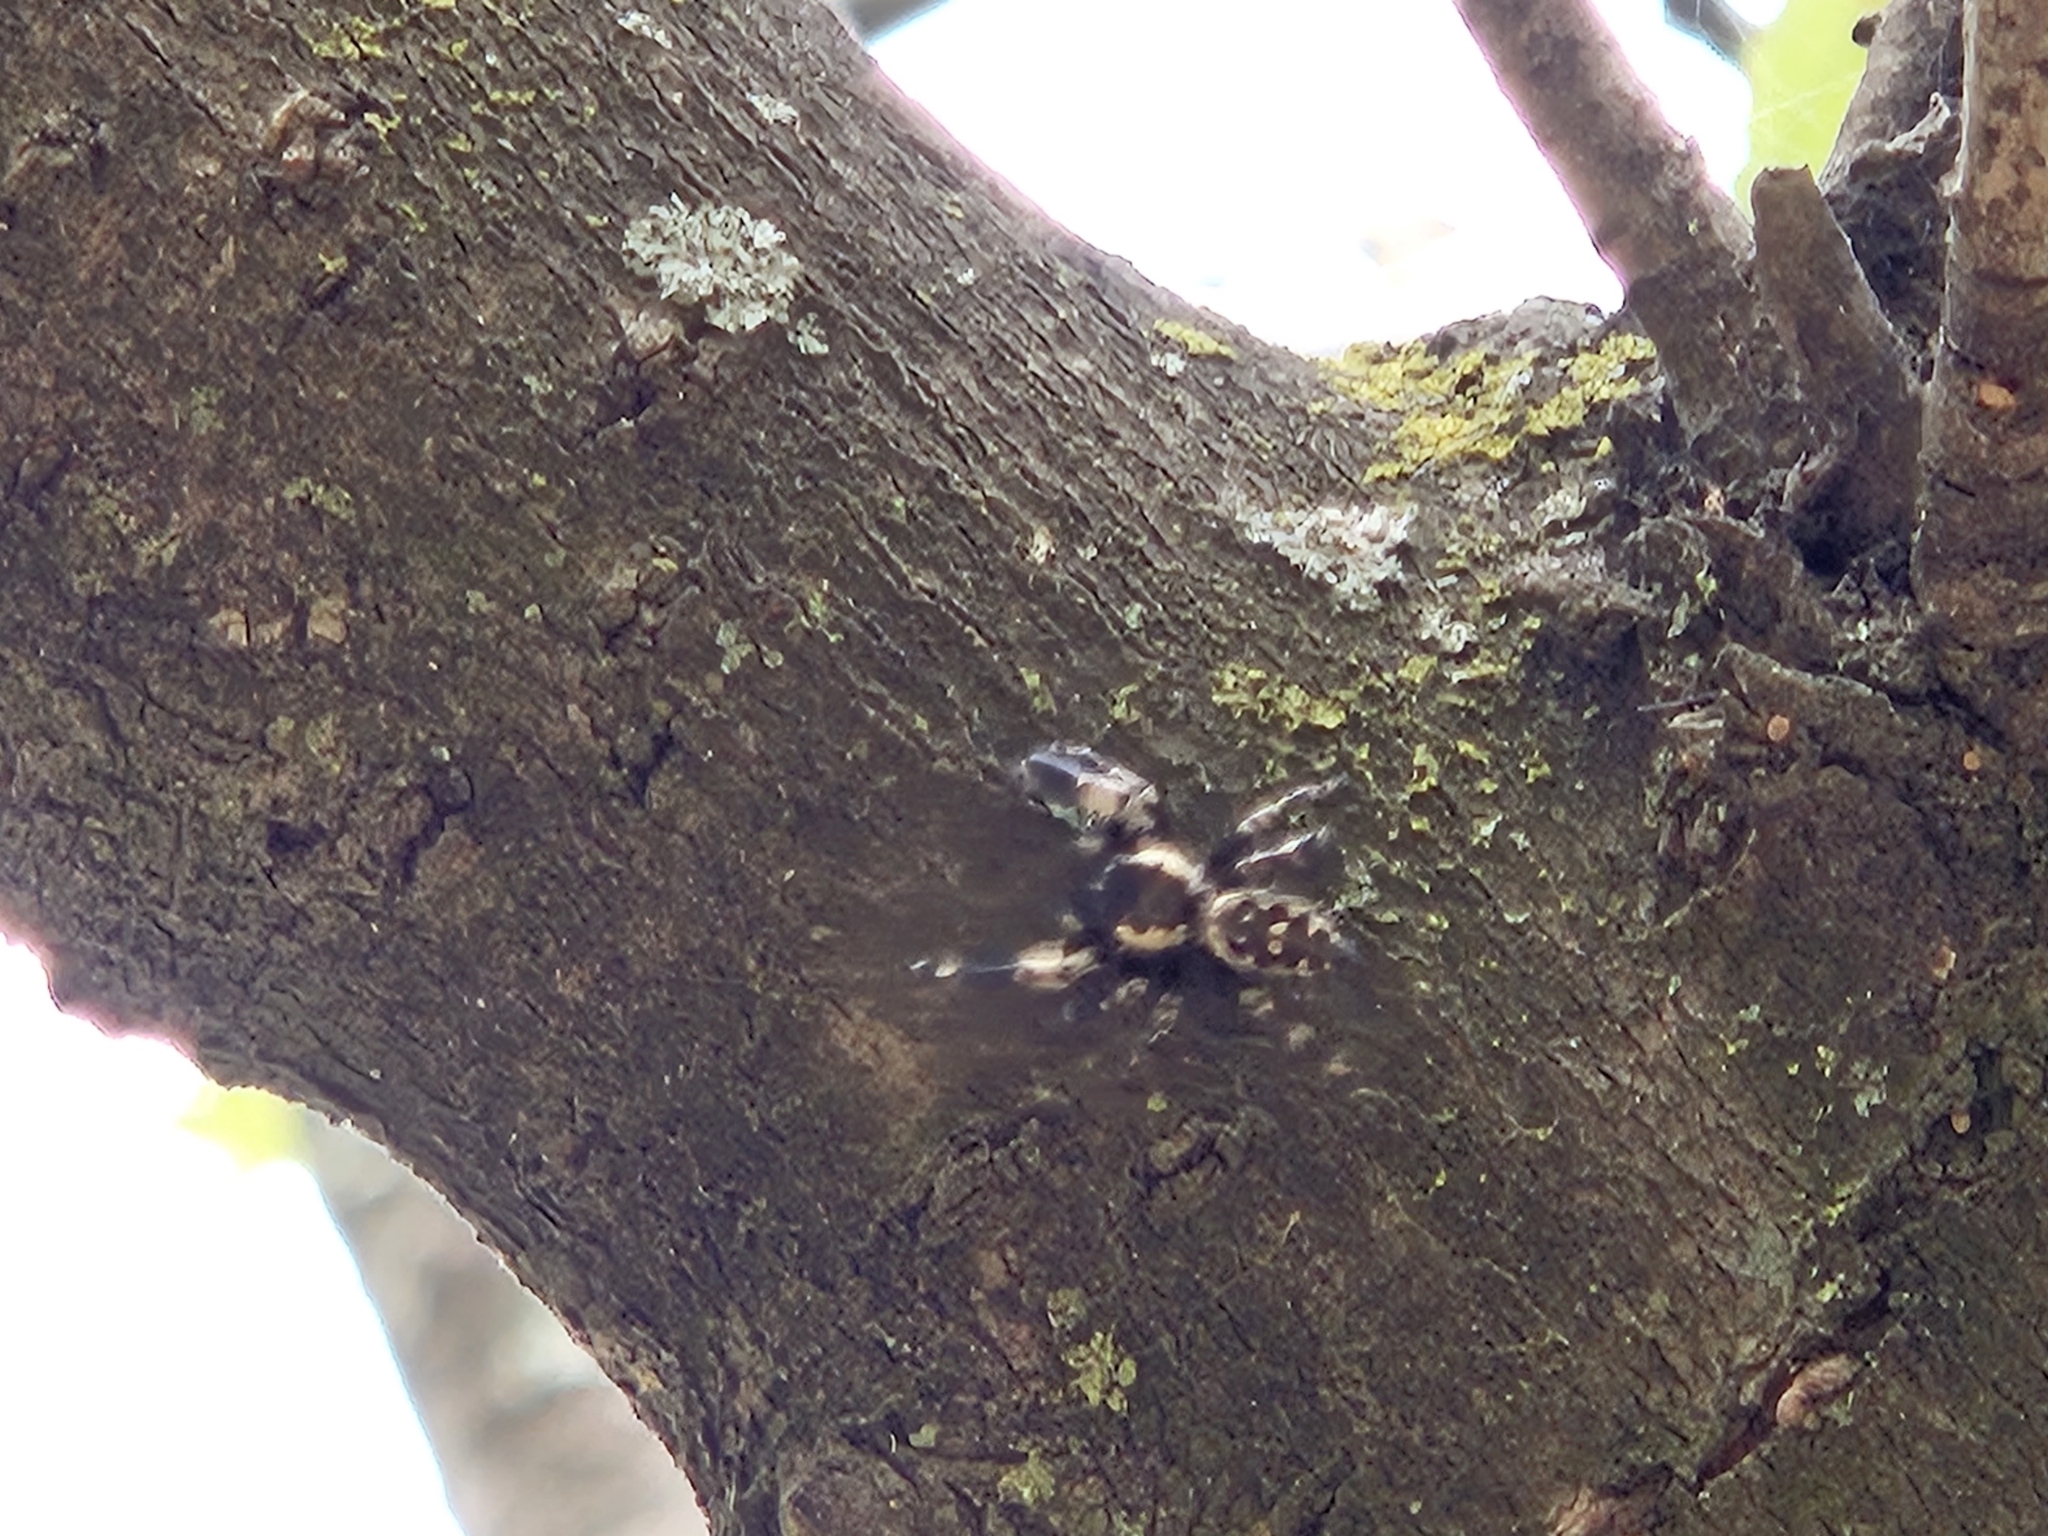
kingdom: Animalia
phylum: Arthropoda
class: Arachnida
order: Araneae
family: Salticidae
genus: Phidippus
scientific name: Phidippus otiosus
